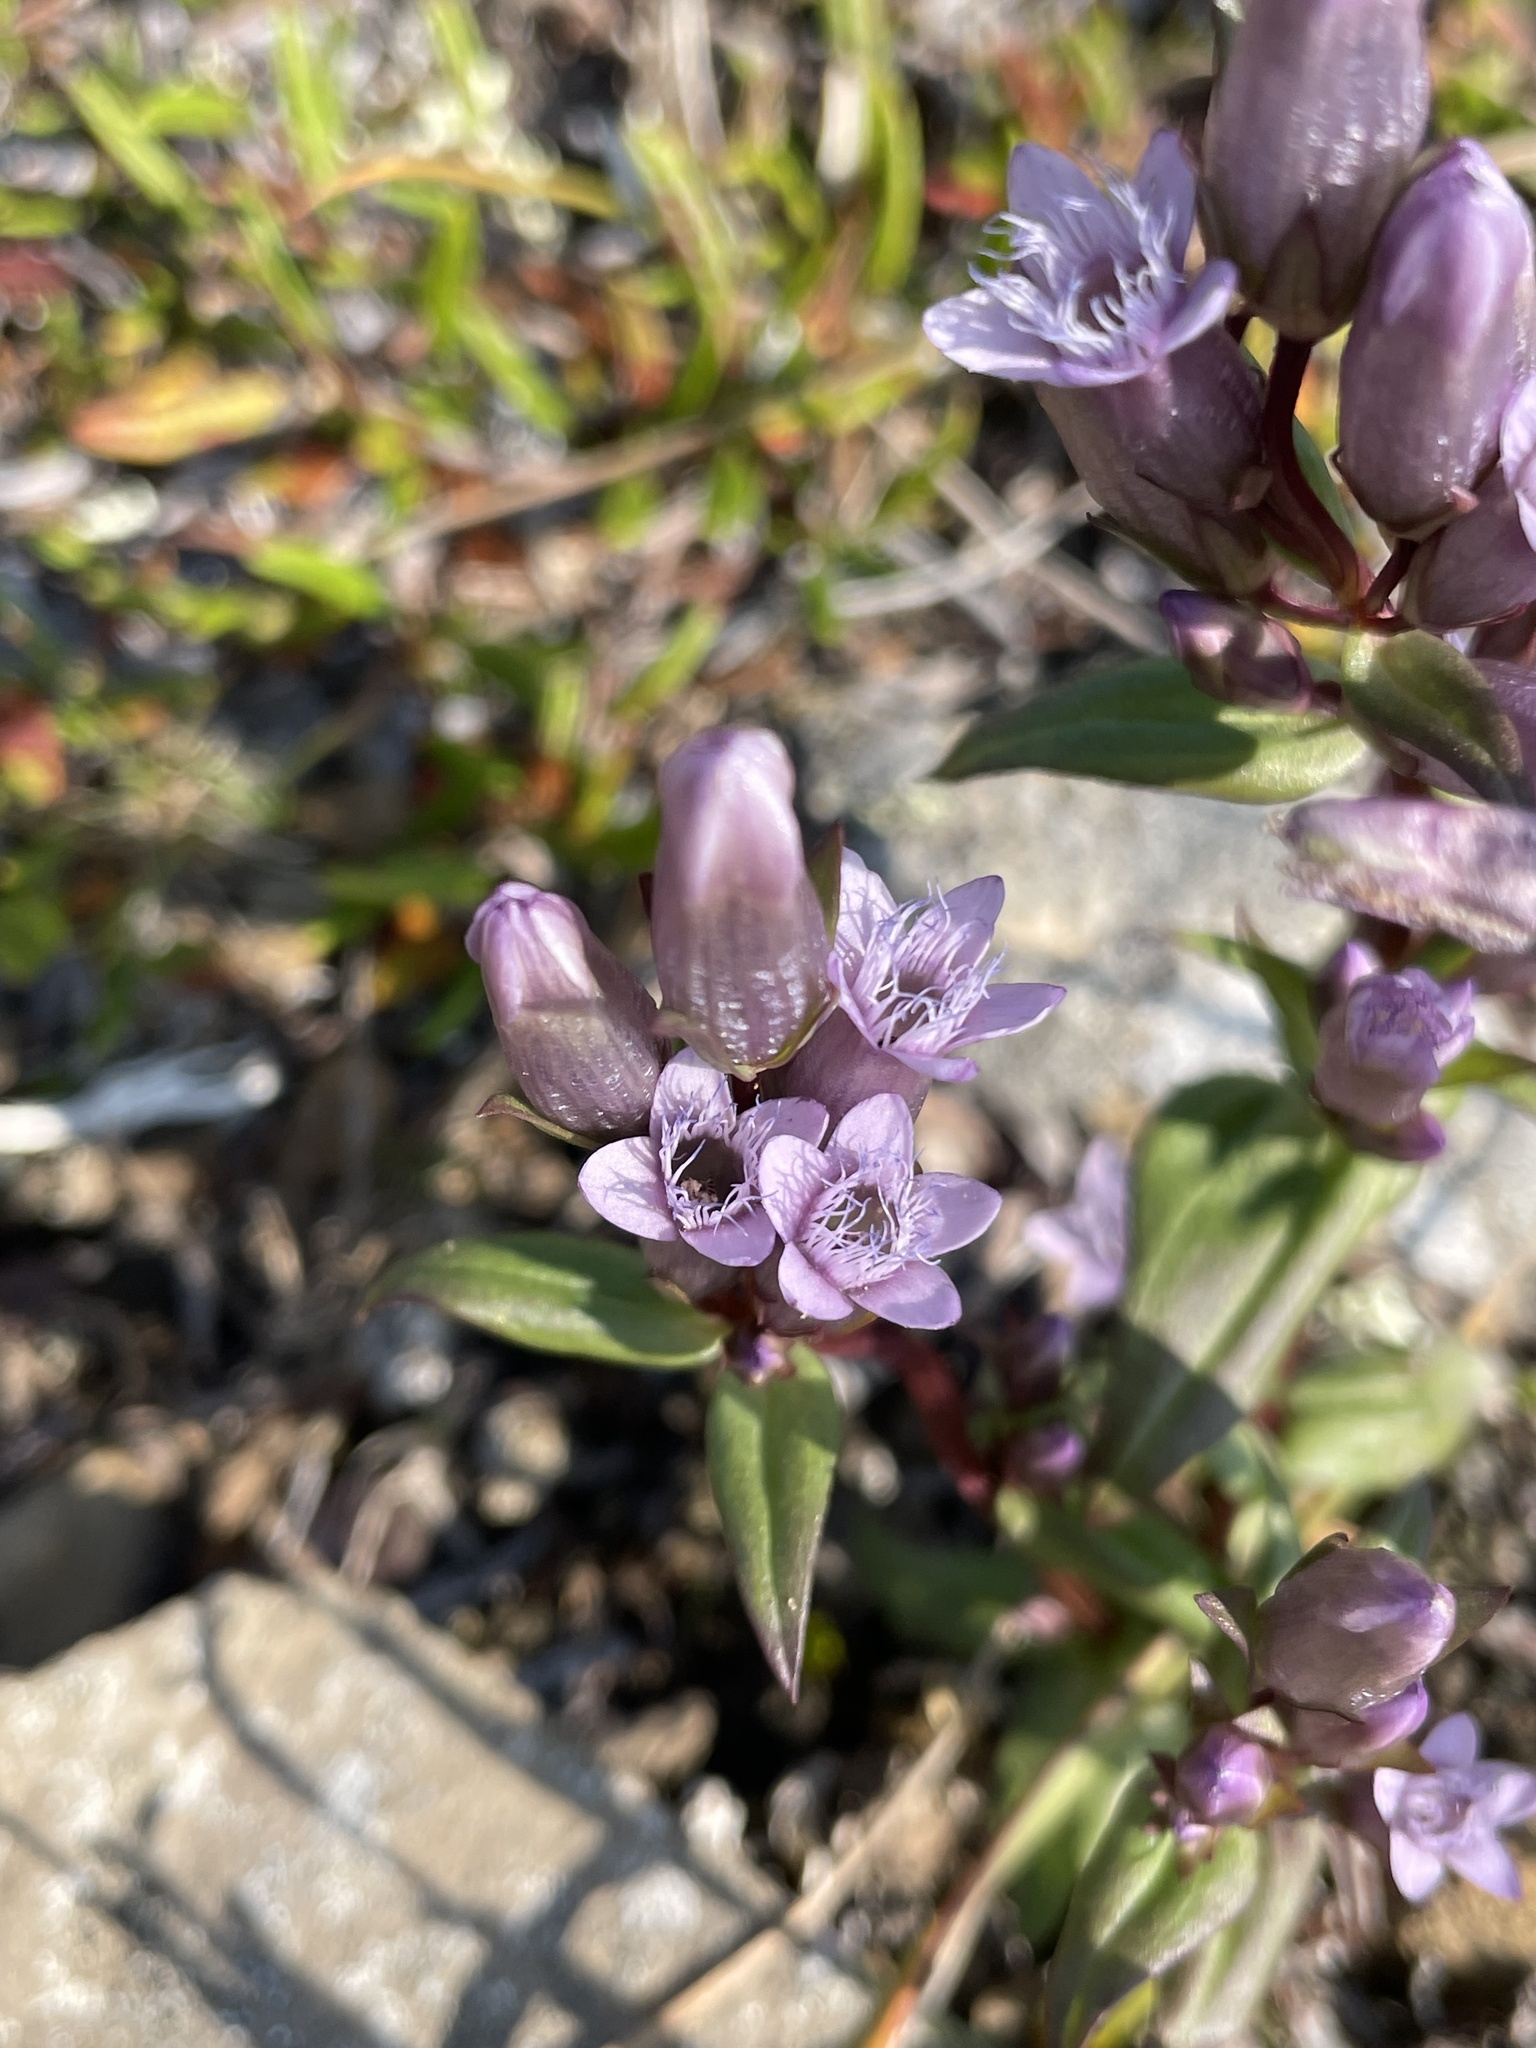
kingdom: Plantae
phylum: Tracheophyta
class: Magnoliopsida
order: Gentianales
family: Gentianaceae
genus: Gentianella
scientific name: Gentianella amarella
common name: Autumn gentian
